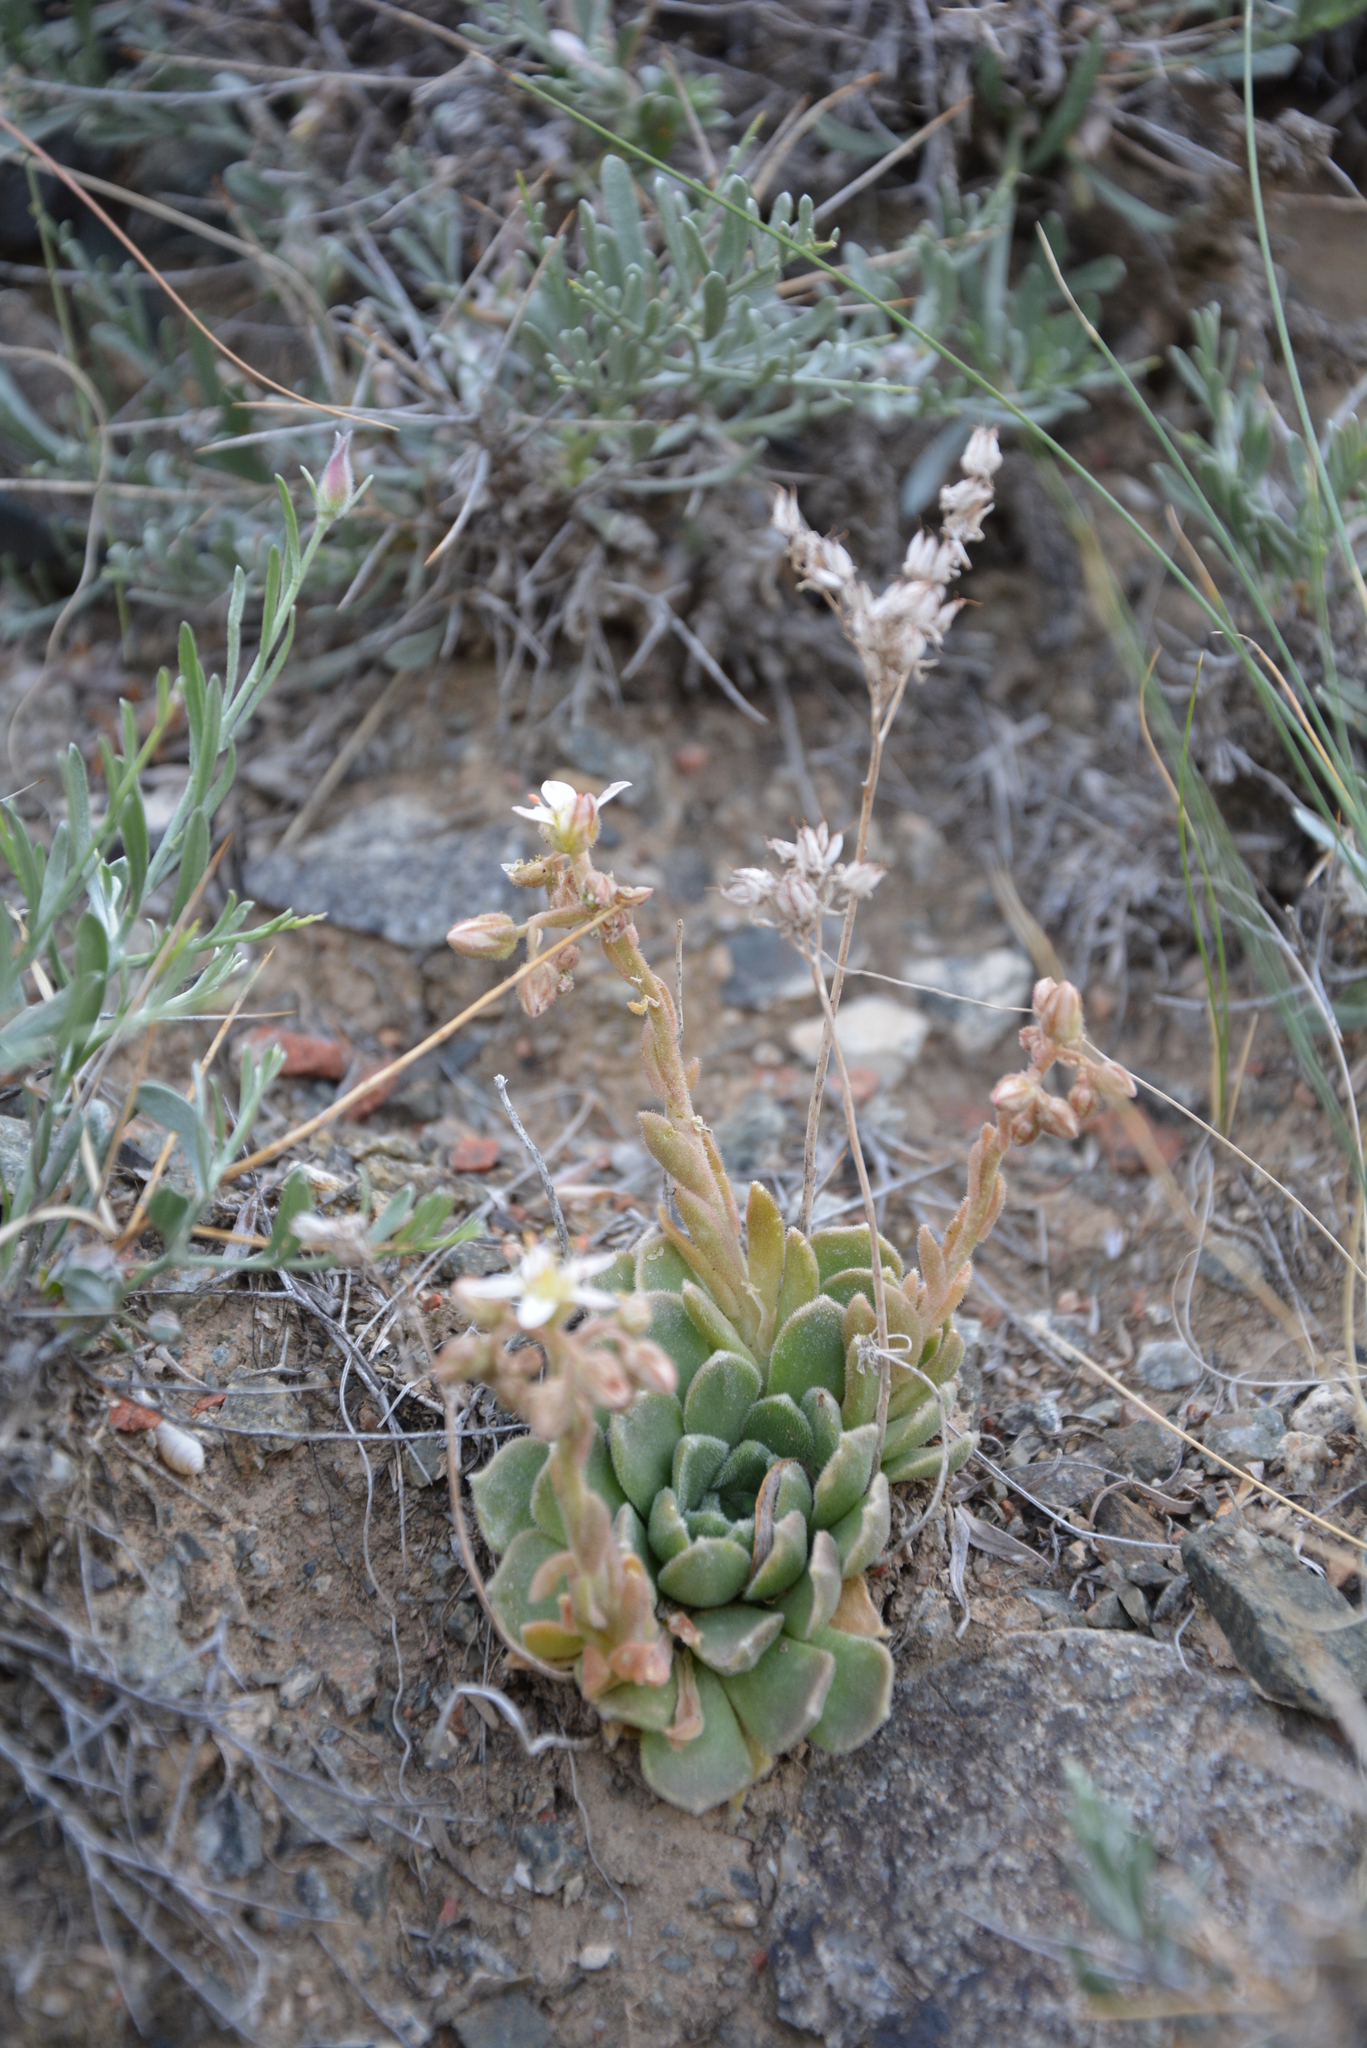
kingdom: Plantae
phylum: Tracheophyta
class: Magnoliopsida
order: Saxifragales
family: Crassulaceae
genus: Rosularia
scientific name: Rosularia platyphylla
